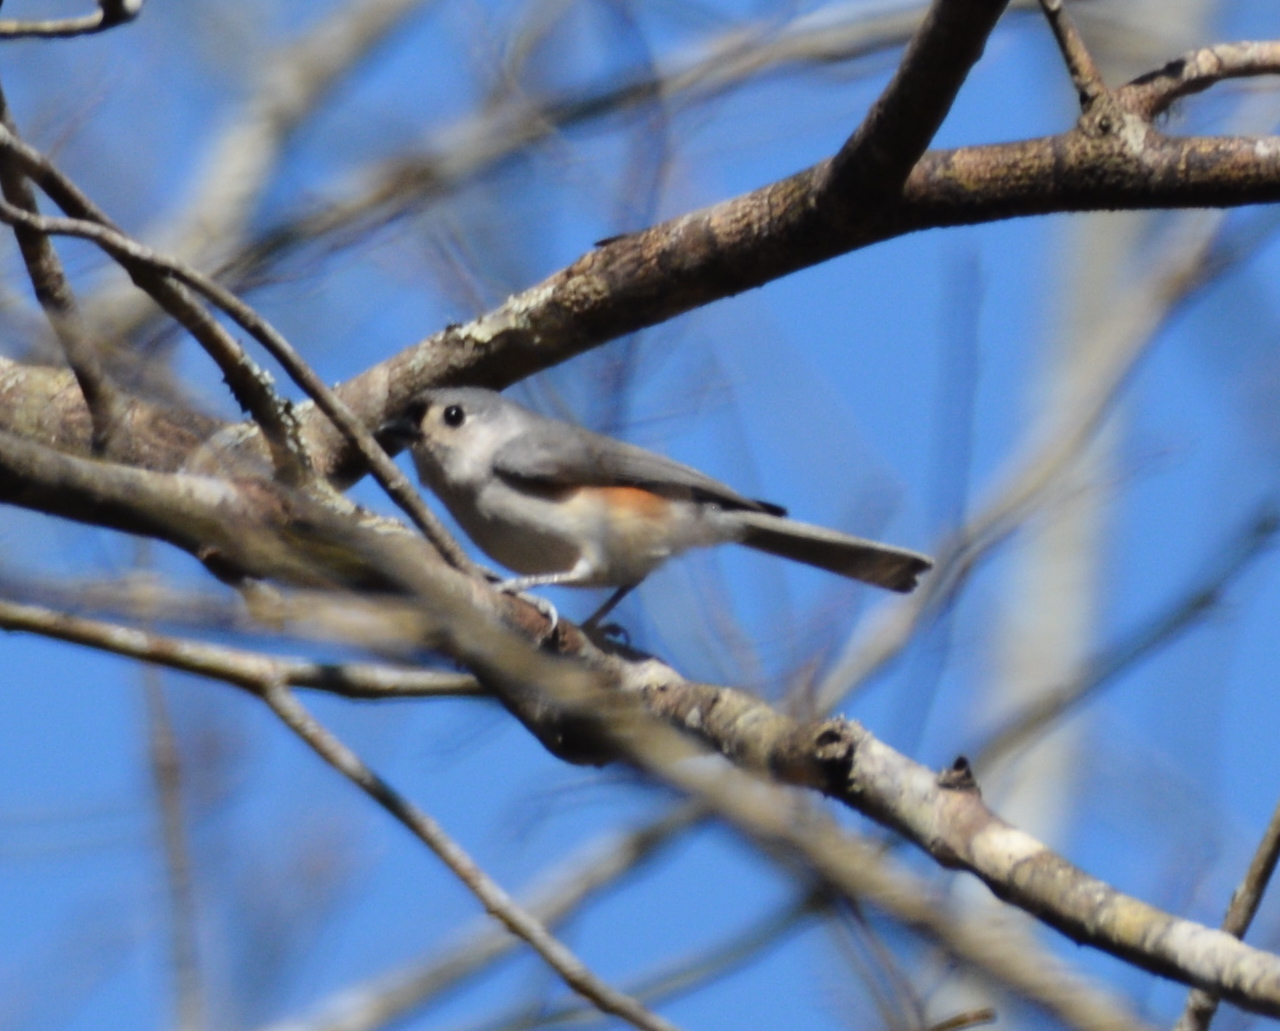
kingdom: Animalia
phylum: Chordata
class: Aves
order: Passeriformes
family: Paridae
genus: Baeolophus
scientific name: Baeolophus bicolor
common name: Tufted titmouse
